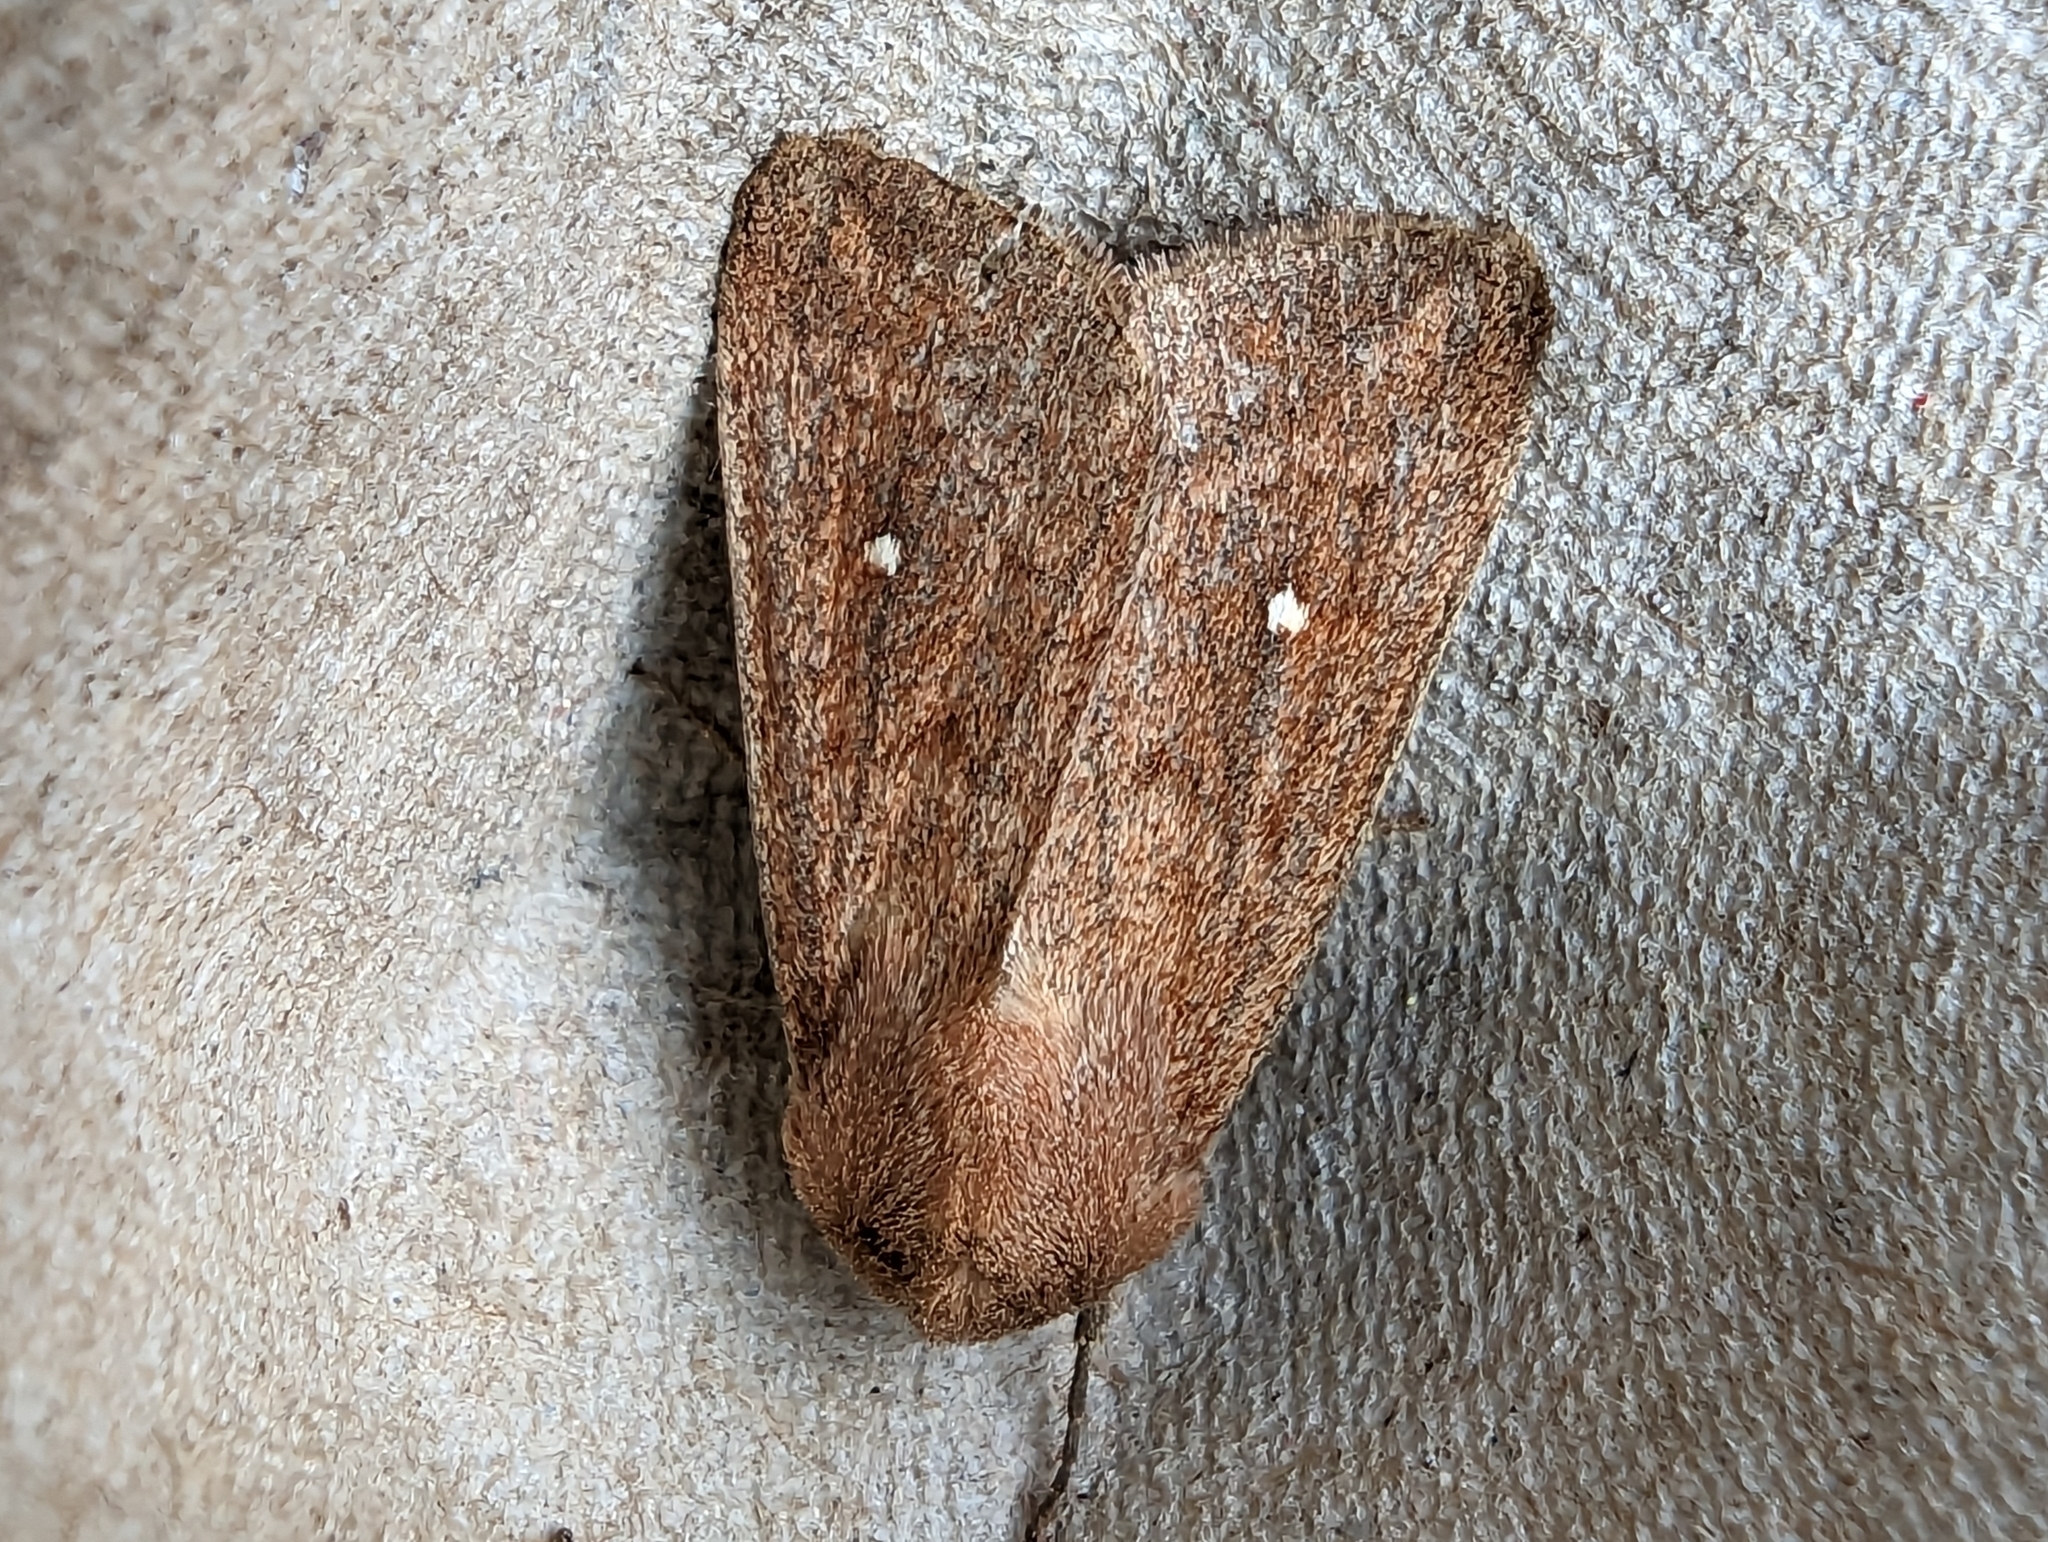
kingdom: Animalia
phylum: Arthropoda
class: Insecta
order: Lepidoptera
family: Noctuidae
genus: Mythimna
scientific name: Mythimna albipuncta
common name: White-point
